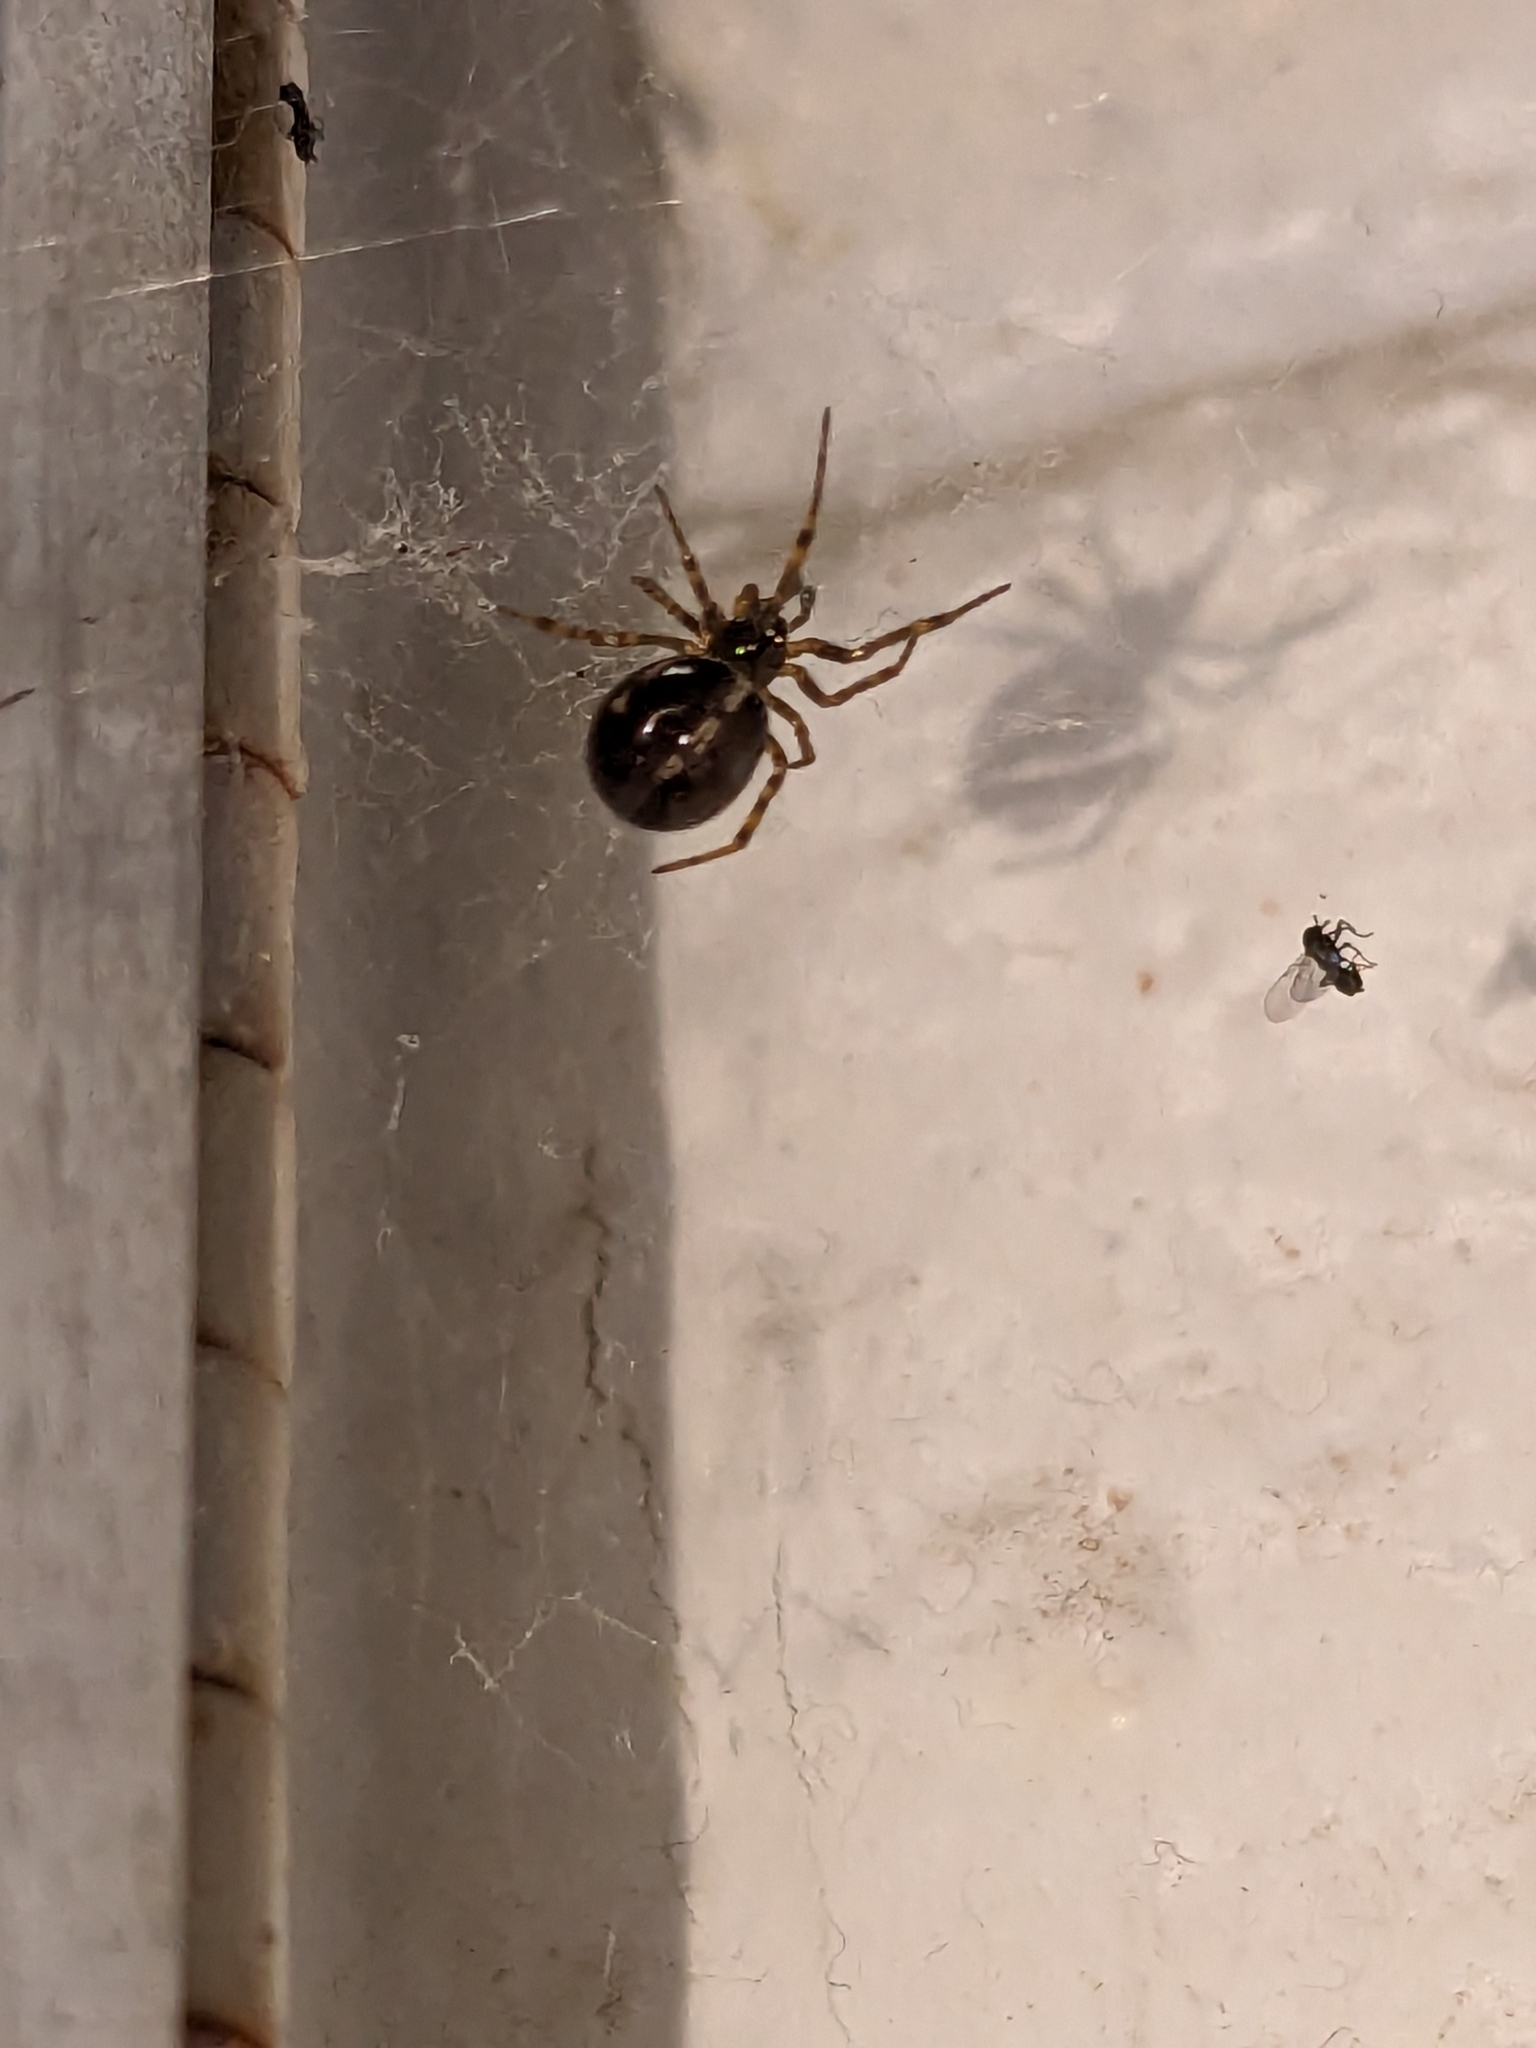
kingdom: Animalia
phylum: Arthropoda
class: Arachnida
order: Araneae
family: Theridiidae
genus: Steatoda
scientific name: Steatoda borealis
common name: Boreal combfoot
